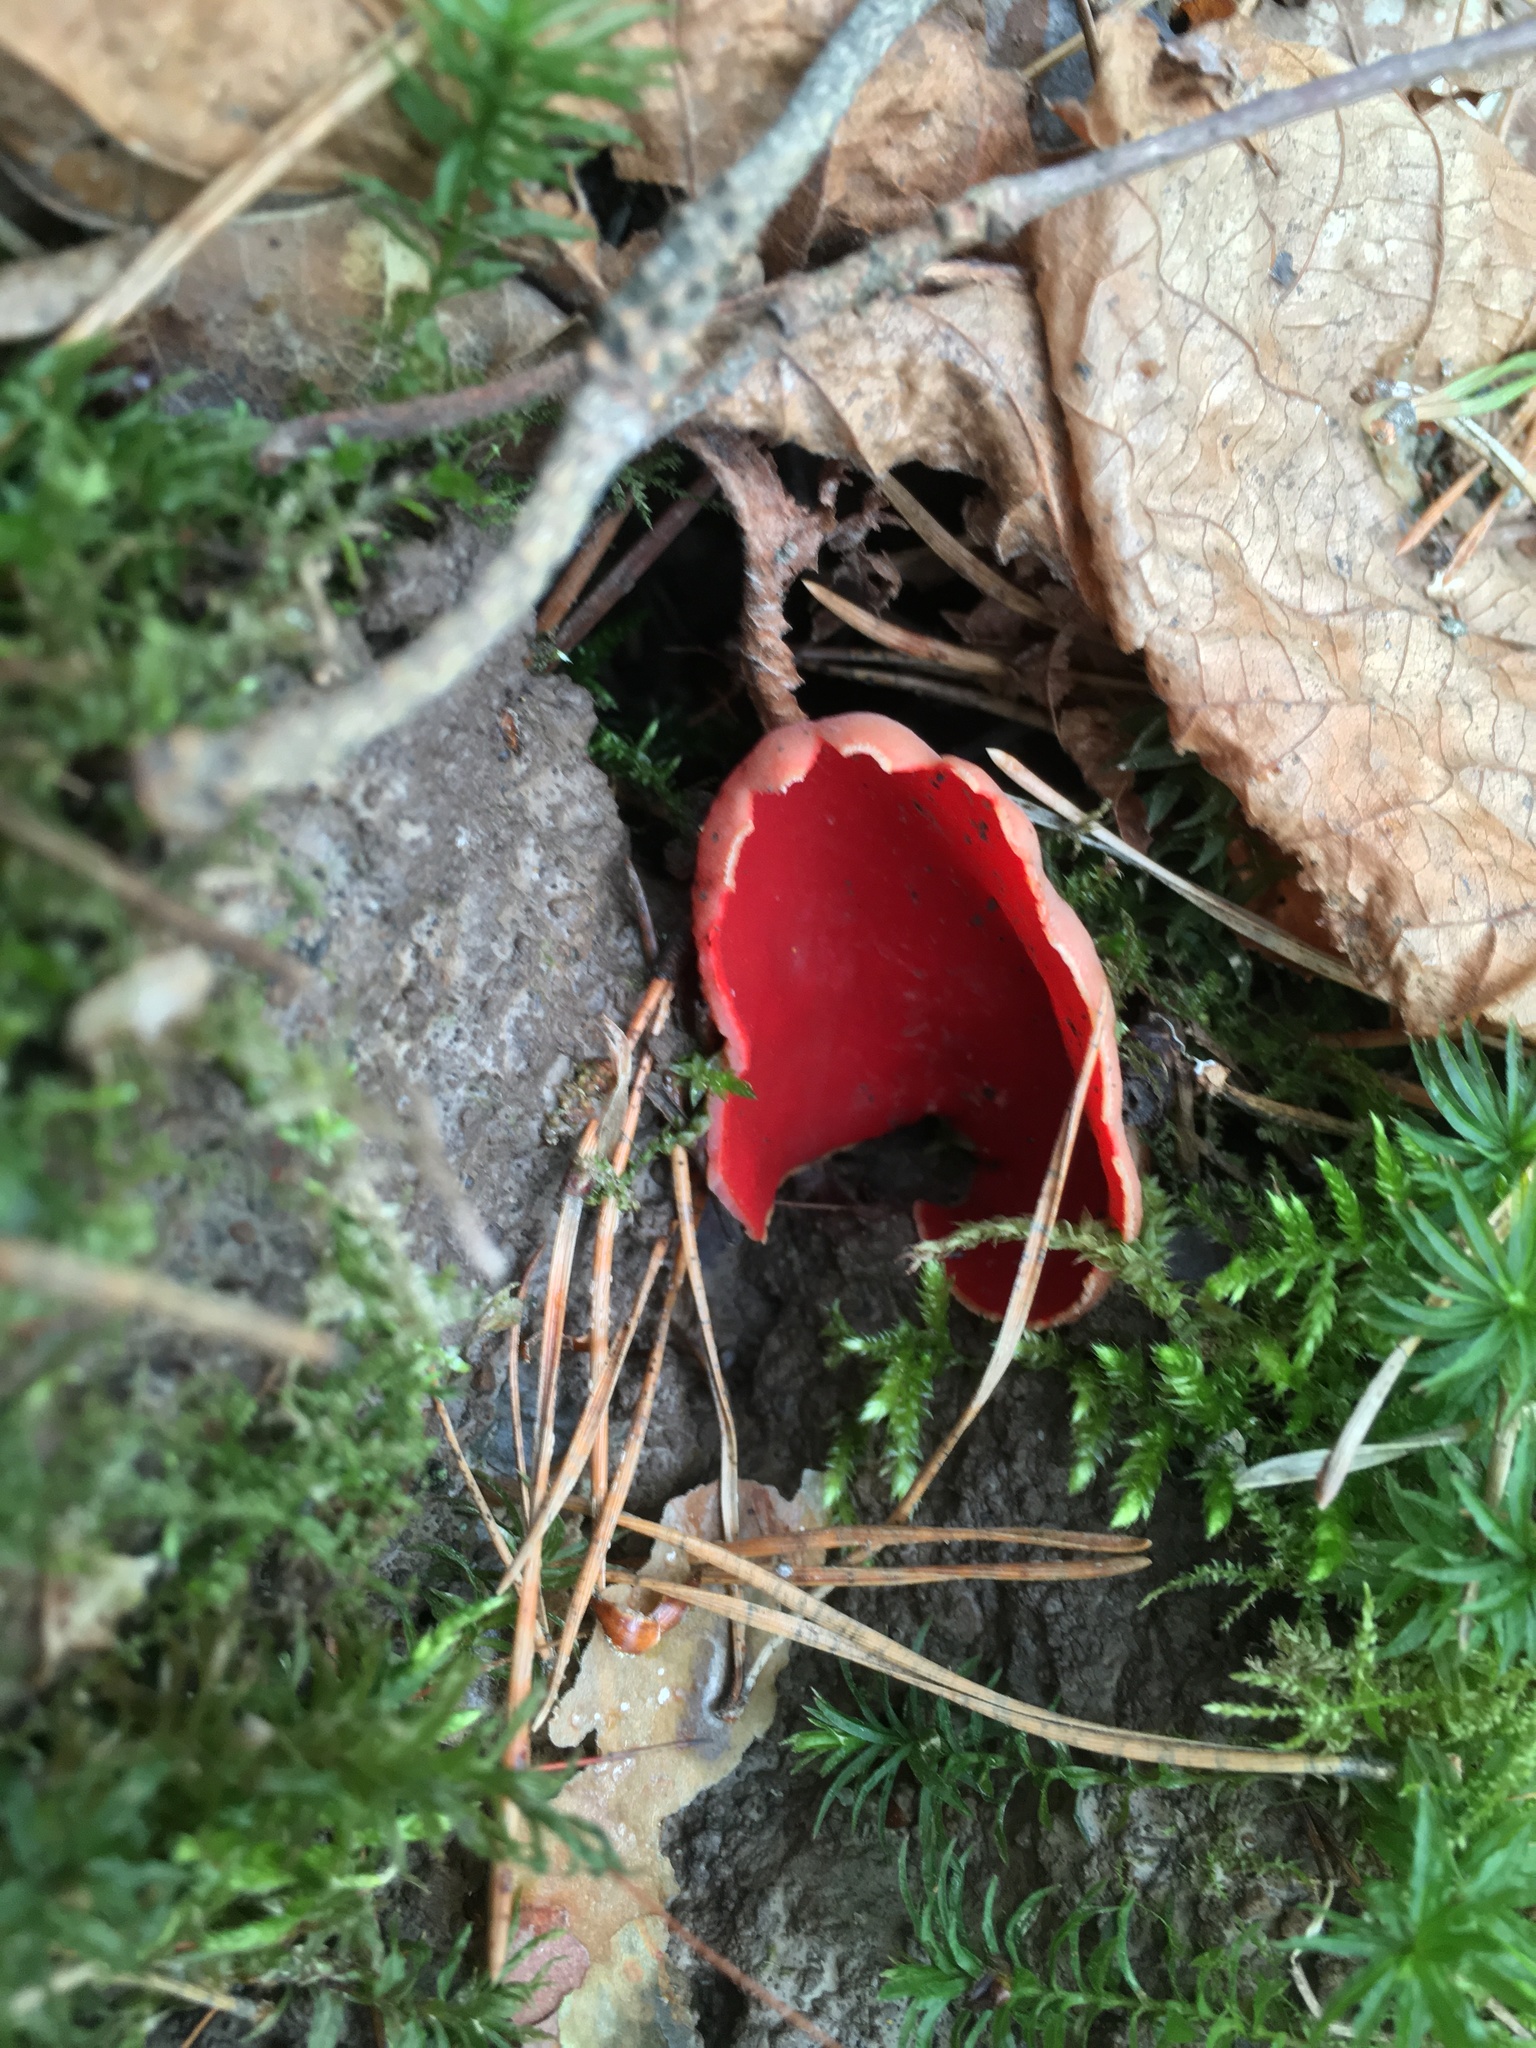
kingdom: Fungi
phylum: Ascomycota
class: Pezizomycetes
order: Pezizales
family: Sarcoscyphaceae
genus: Sarcoscypha
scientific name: Sarcoscypha austriaca
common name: Scarlet elfcup
